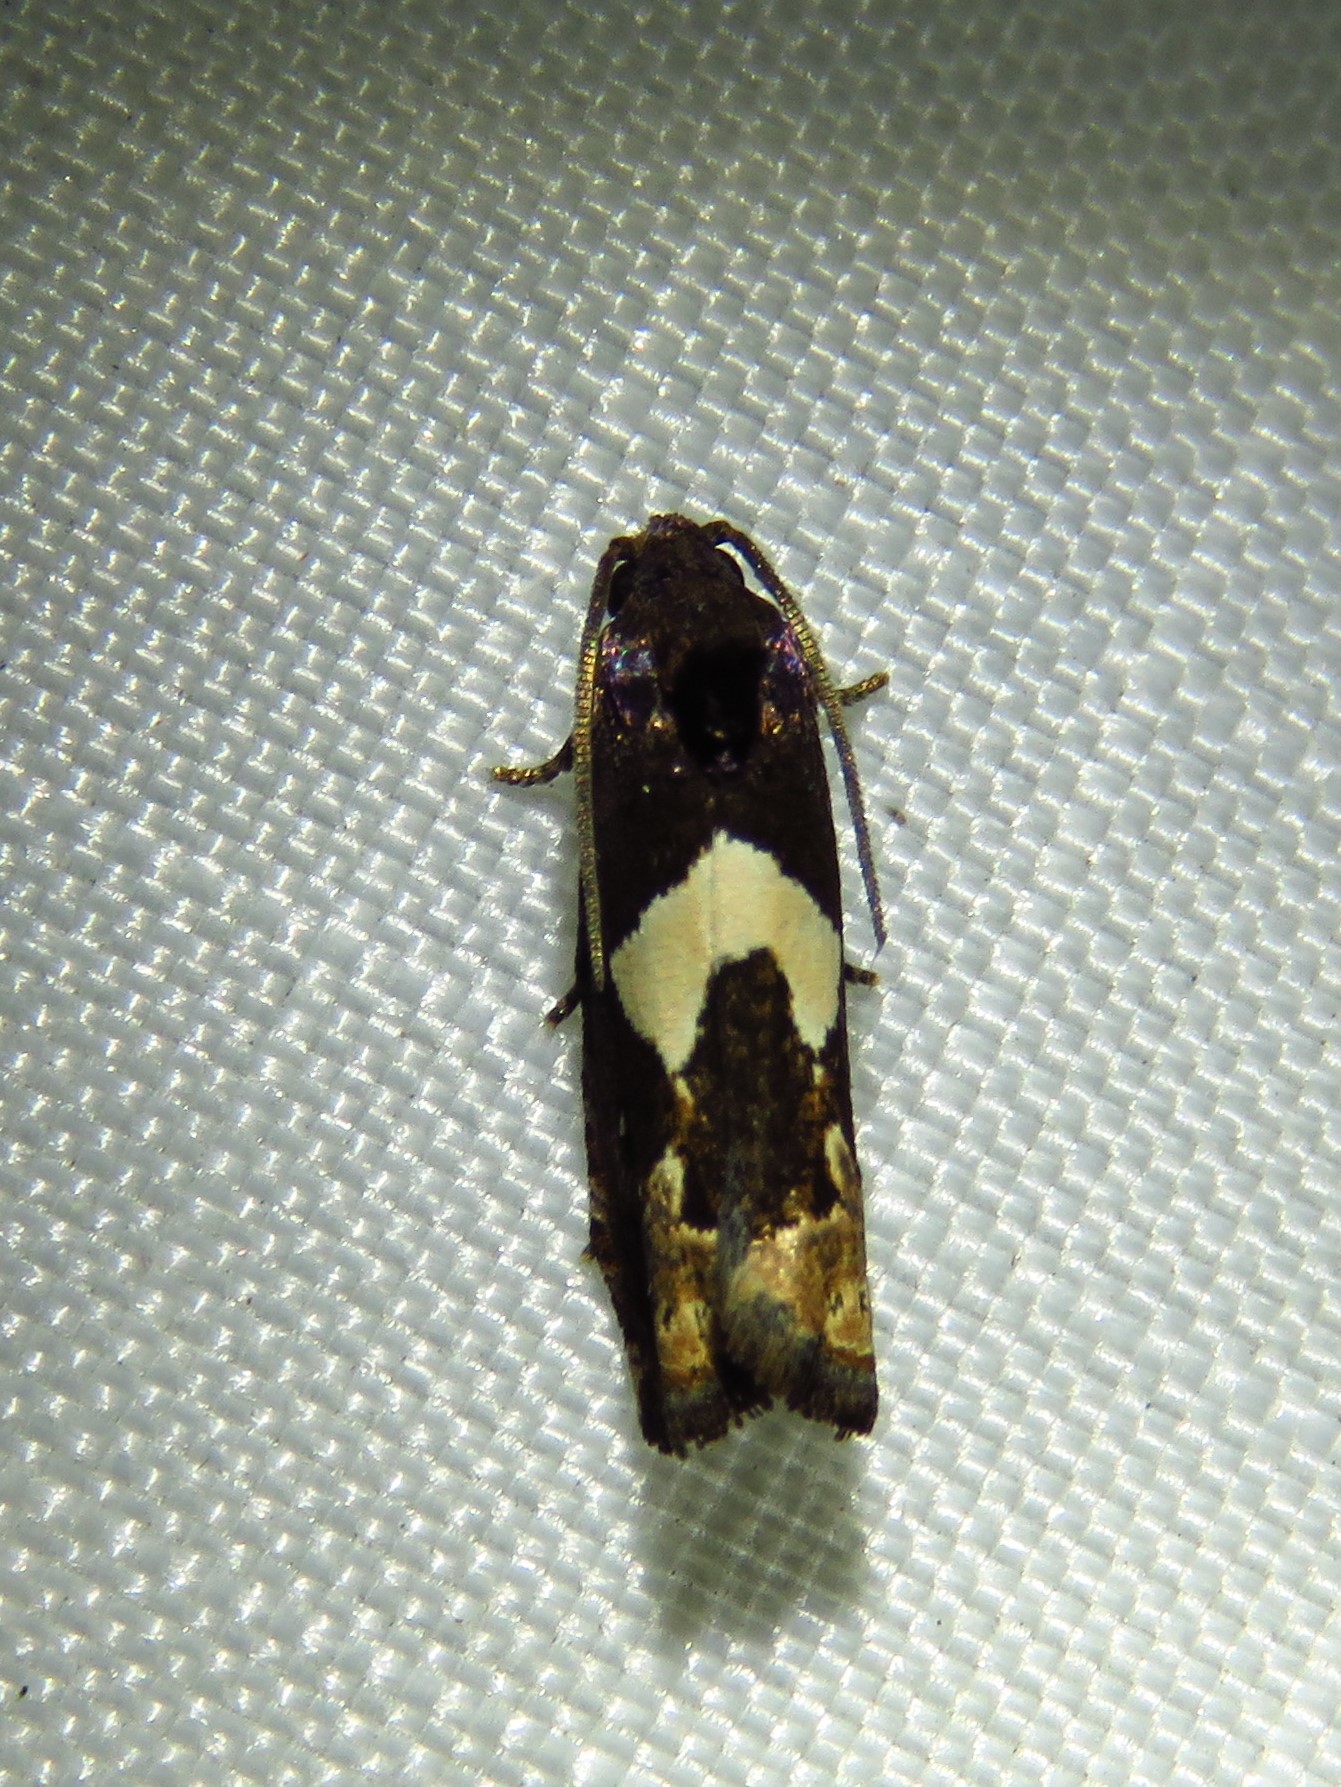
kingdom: Animalia
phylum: Arthropoda
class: Insecta
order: Lepidoptera
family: Tortricidae
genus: Epiblema
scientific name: Epiblema otiosana
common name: Bidens borer moth
